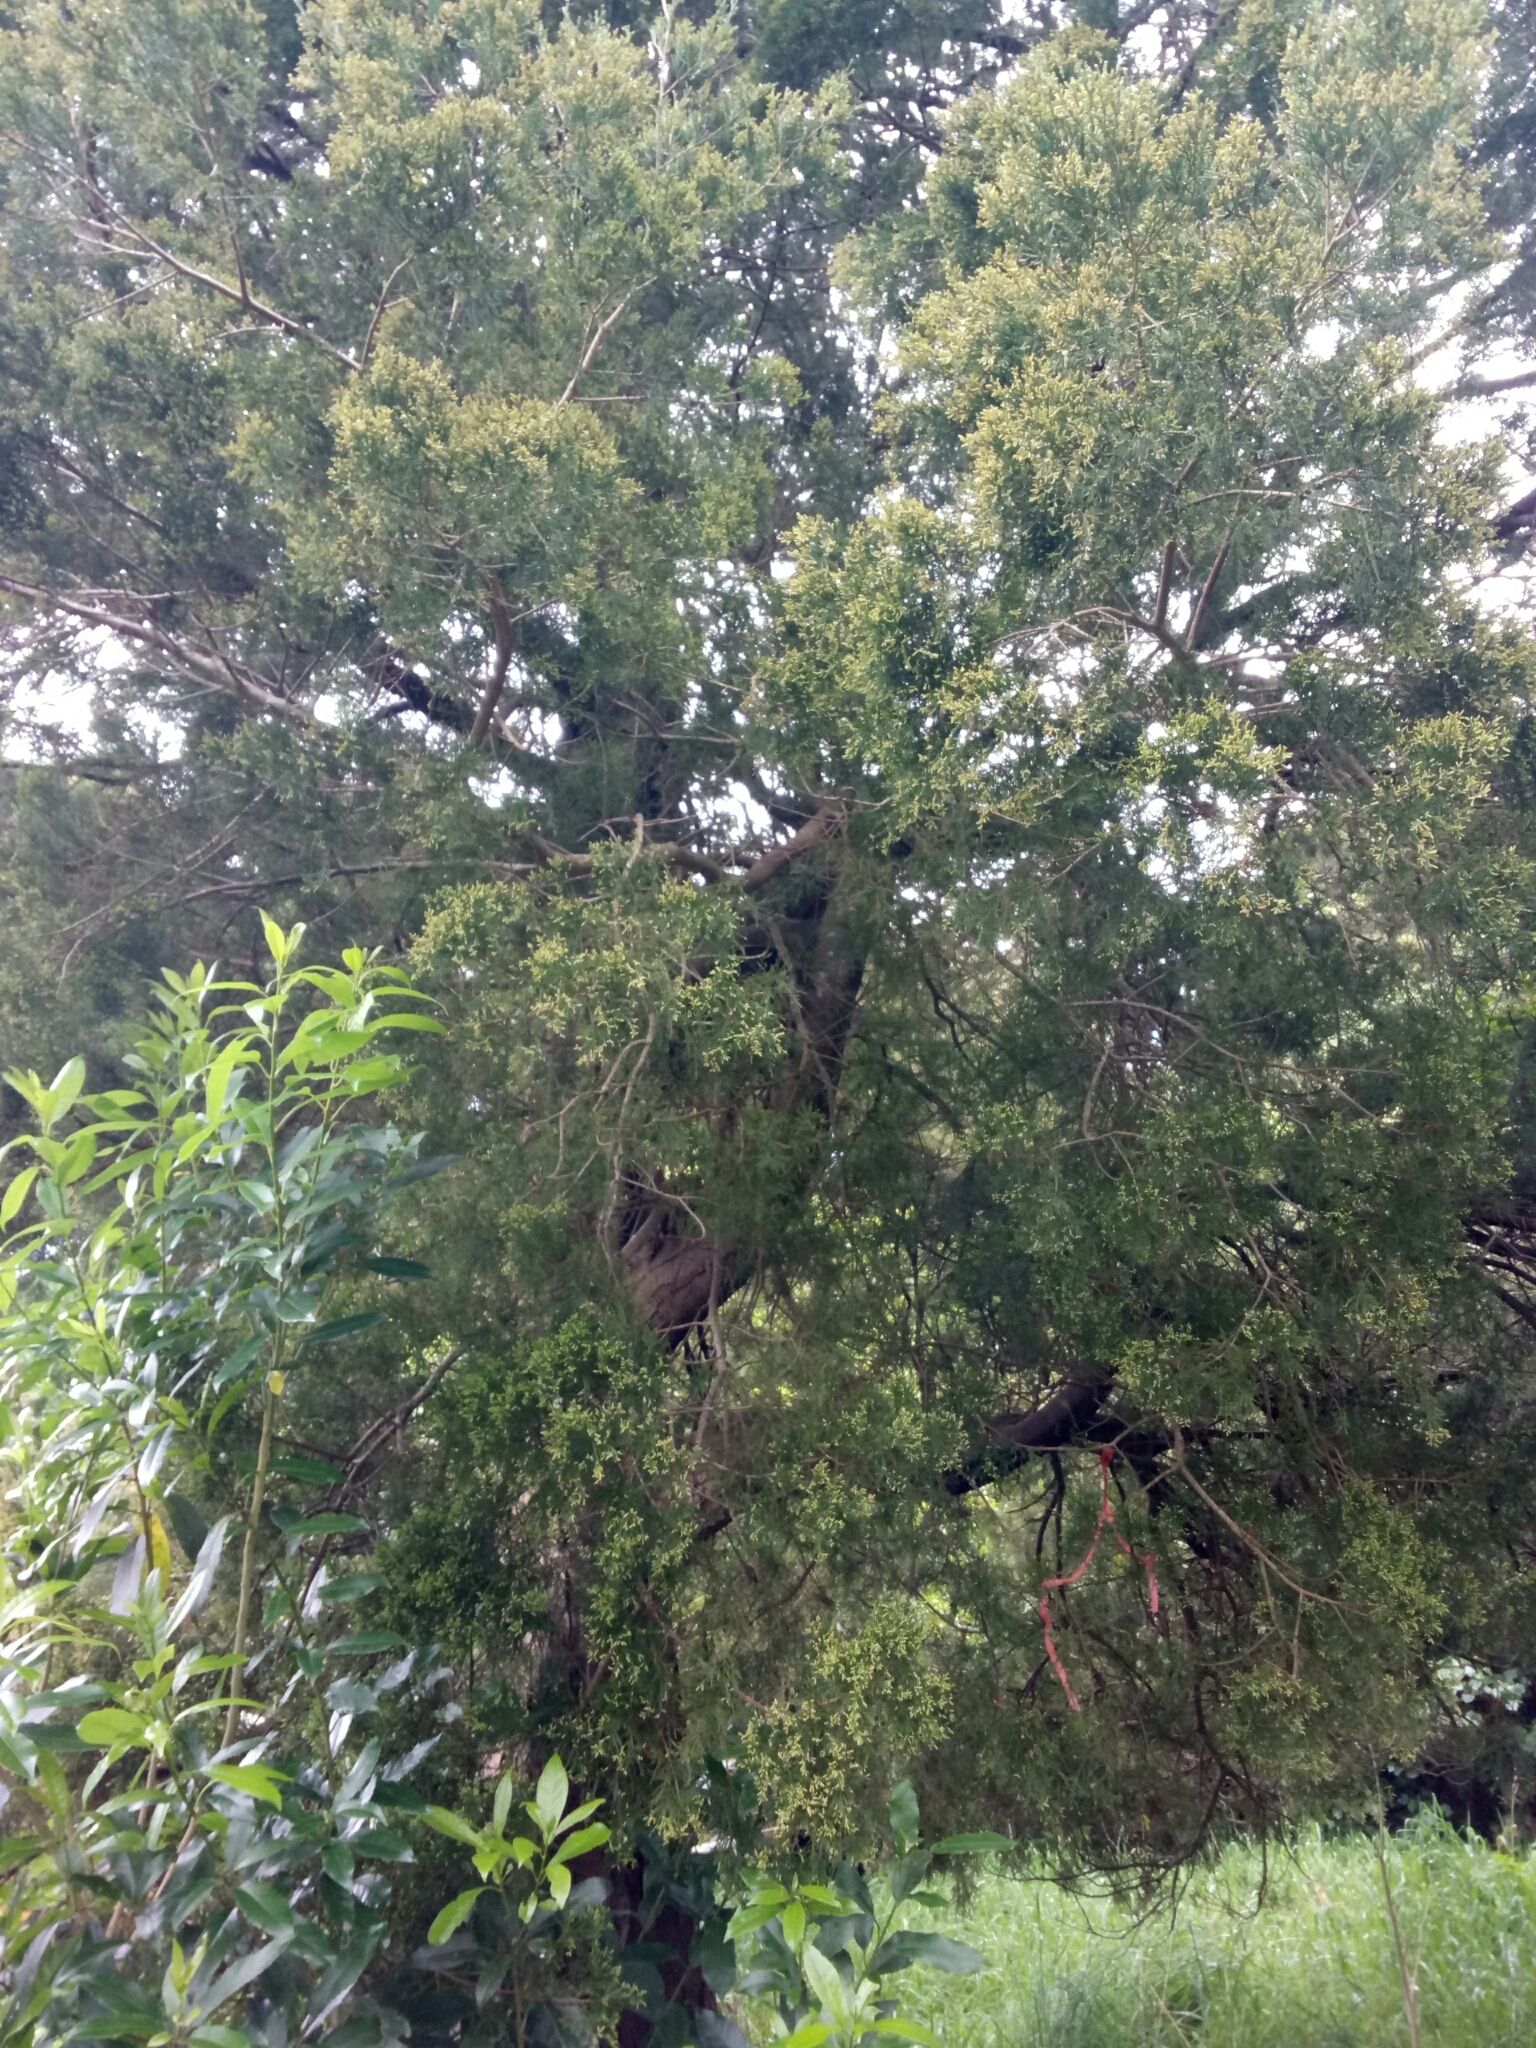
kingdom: Plantae
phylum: Tracheophyta
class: Pinopsida
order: Pinales
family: Podocarpaceae
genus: Dacrycarpus
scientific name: Dacrycarpus dacrydioides
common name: White pine
